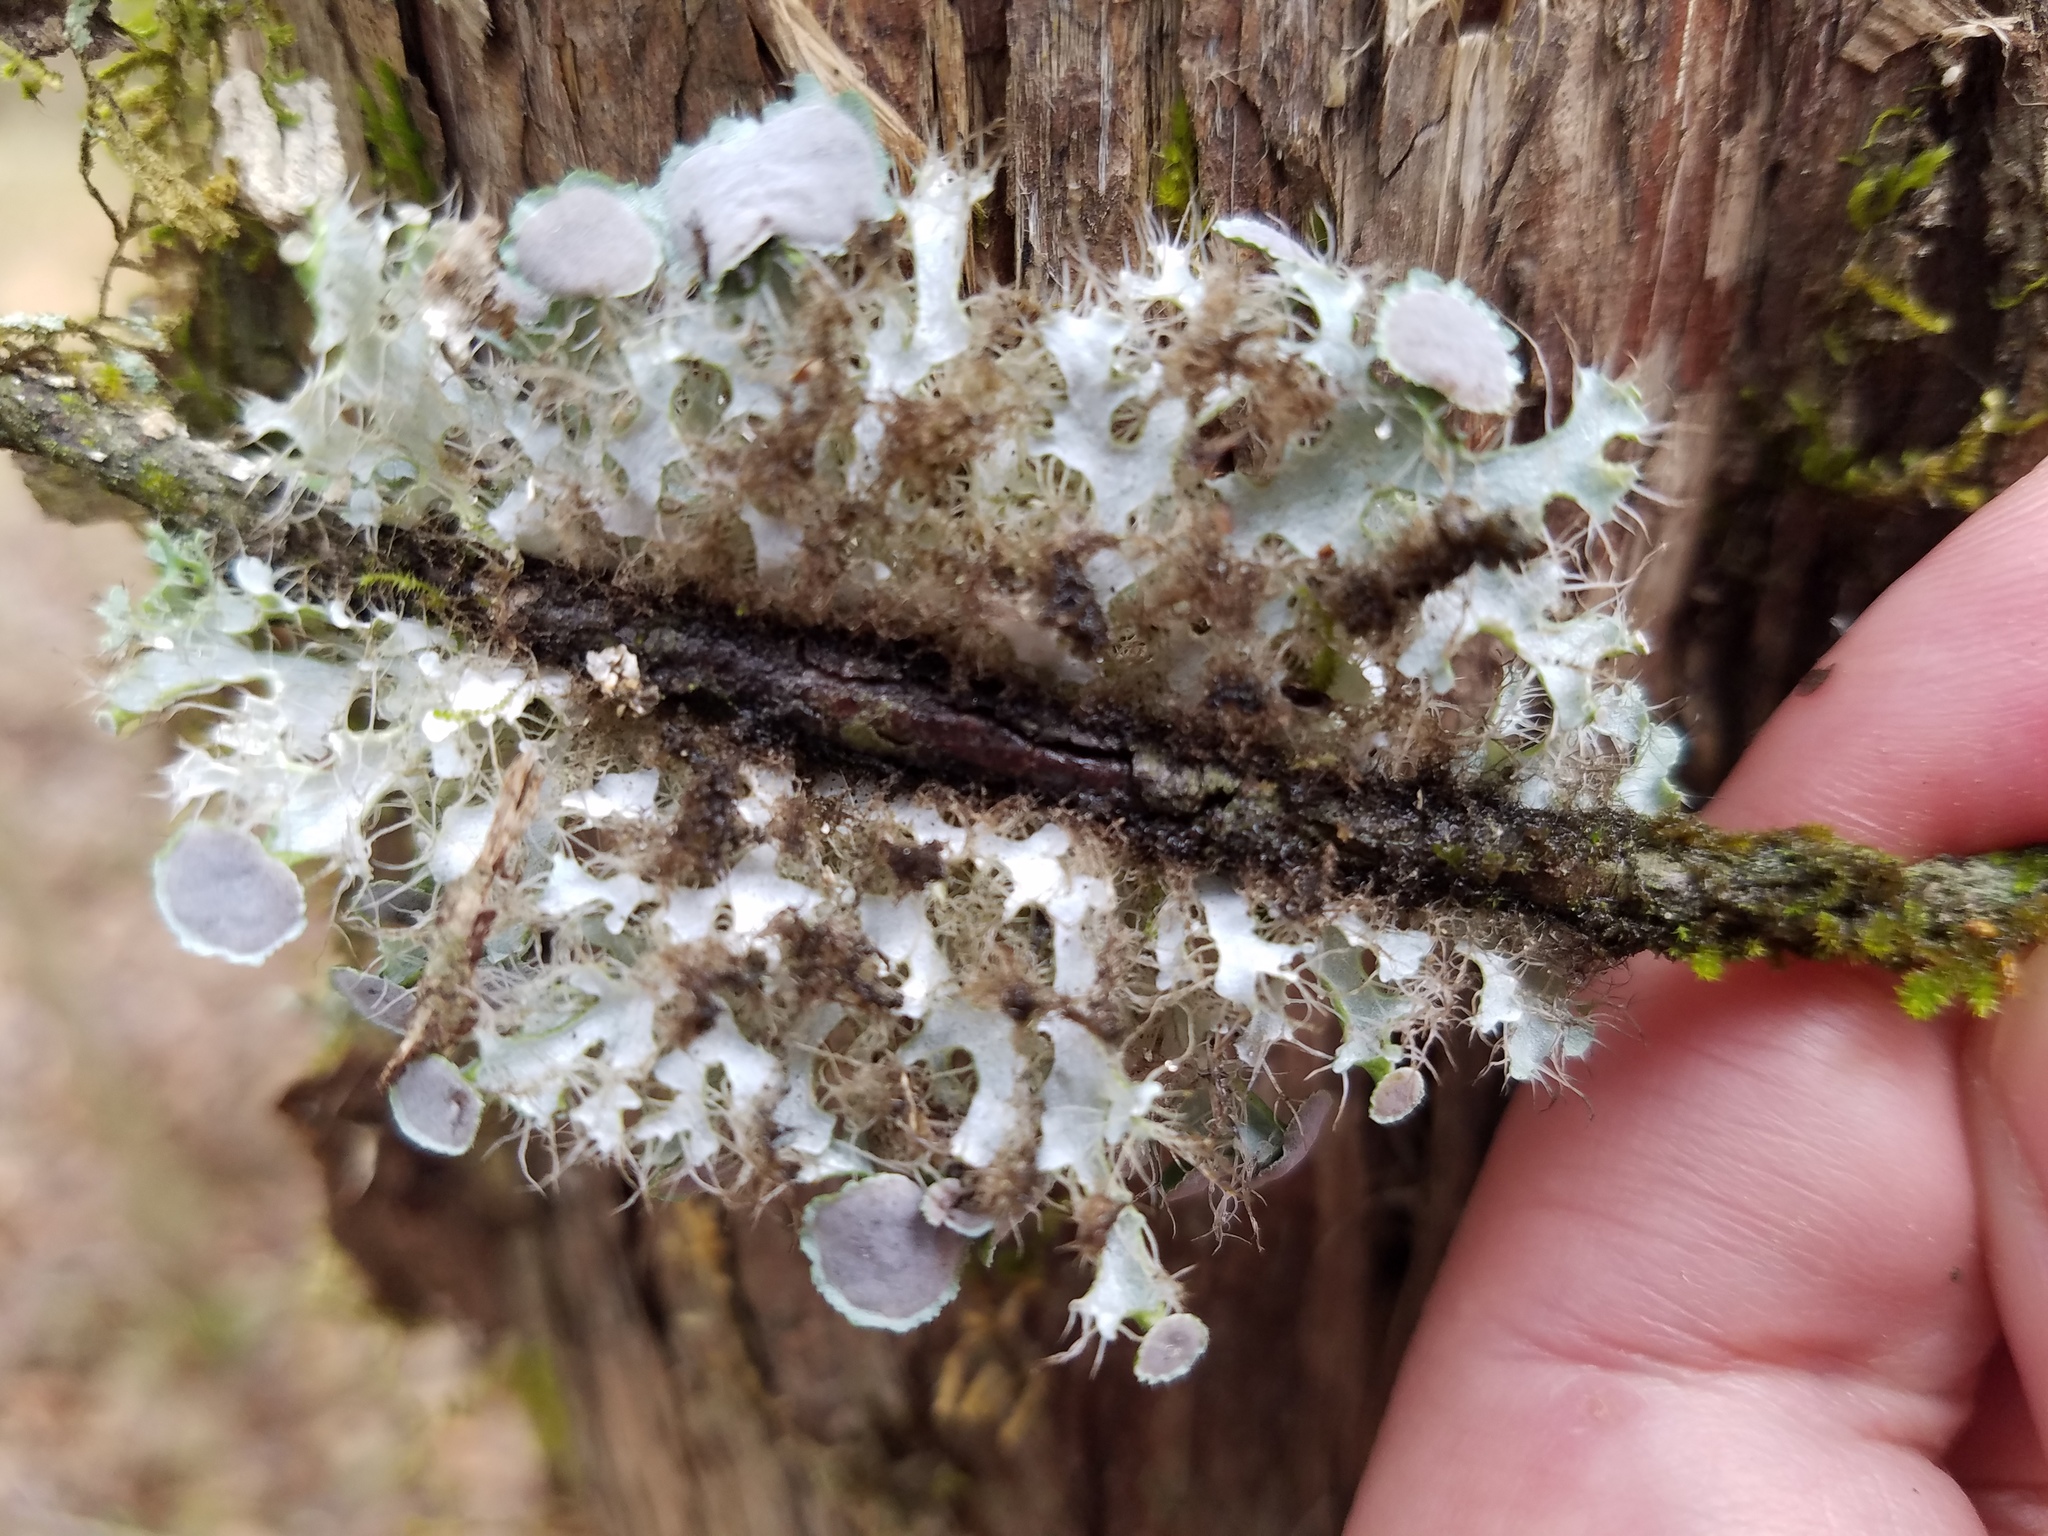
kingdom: Fungi
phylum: Ascomycota
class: Lecanoromycetes
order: Caliciales
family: Physciaceae
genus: Heterodermia
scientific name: Heterodermia echinata
